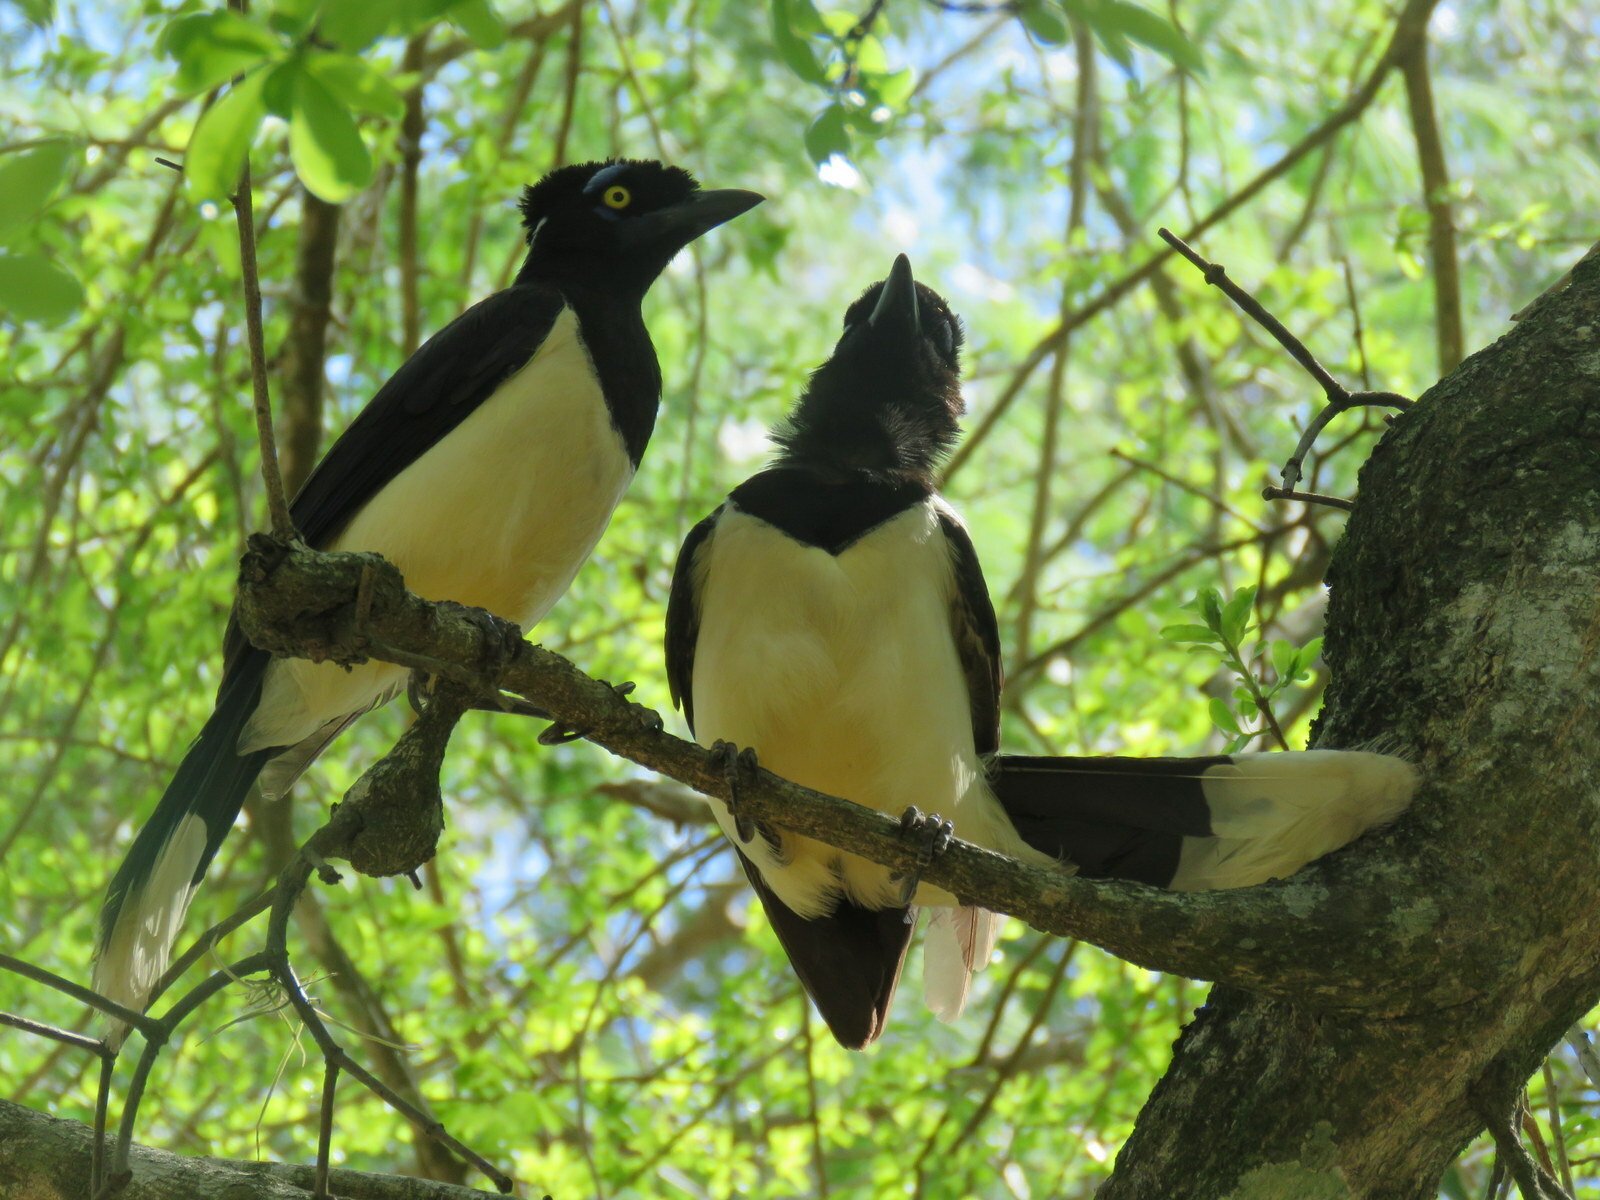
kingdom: Animalia
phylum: Chordata
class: Aves
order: Passeriformes
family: Corvidae
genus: Cyanocorax
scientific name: Cyanocorax chrysops
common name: Plush-crested jay
